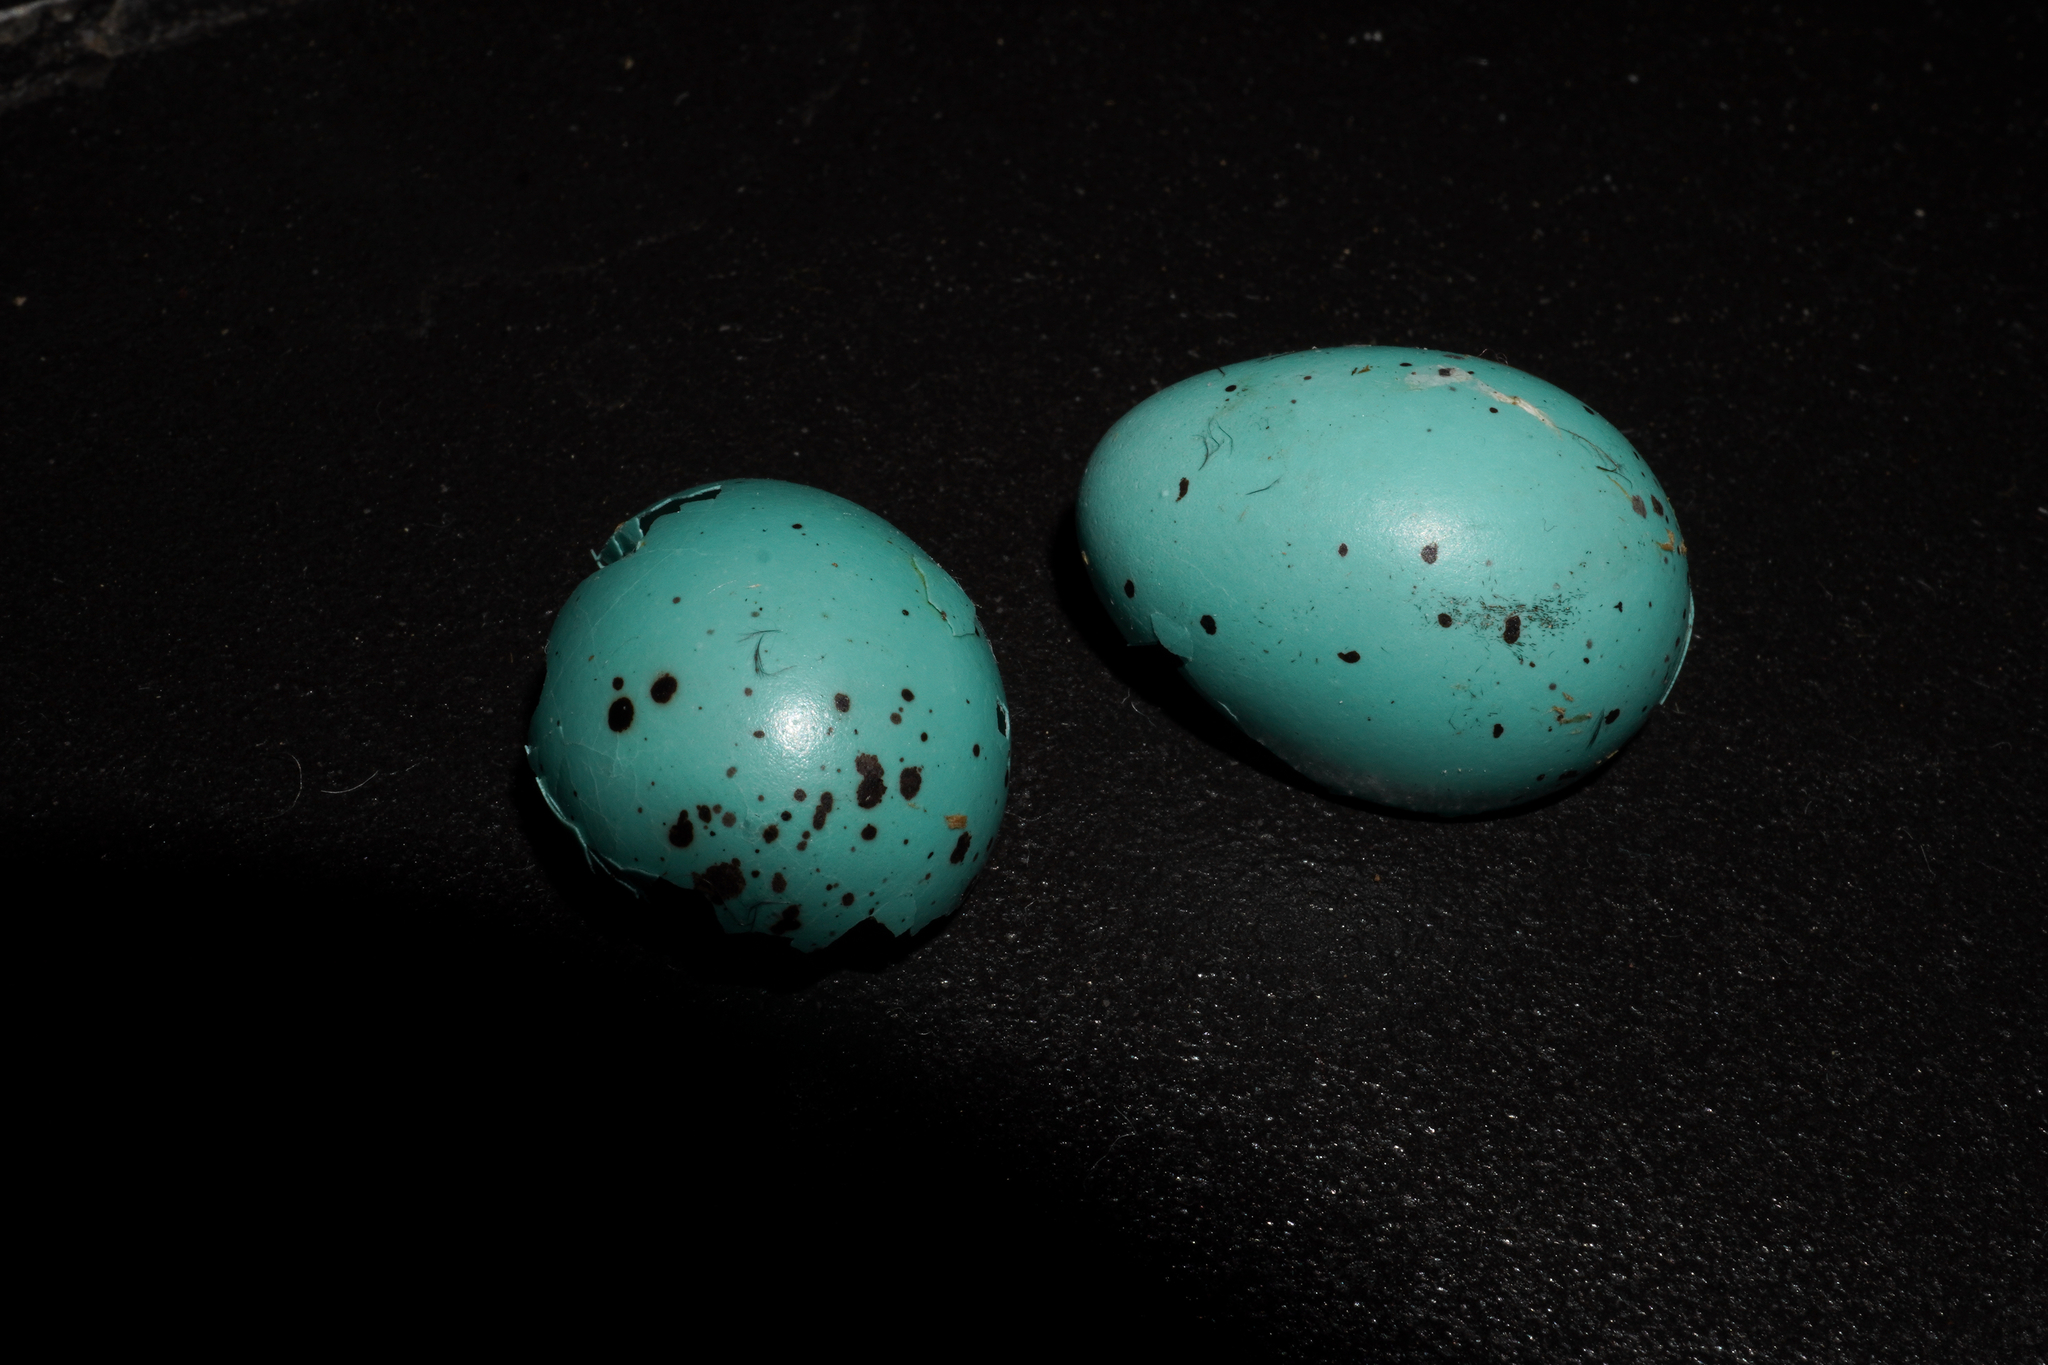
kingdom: Animalia
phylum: Chordata
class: Aves
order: Passeriformes
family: Turdidae
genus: Turdus
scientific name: Turdus philomelos
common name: Song thrush
